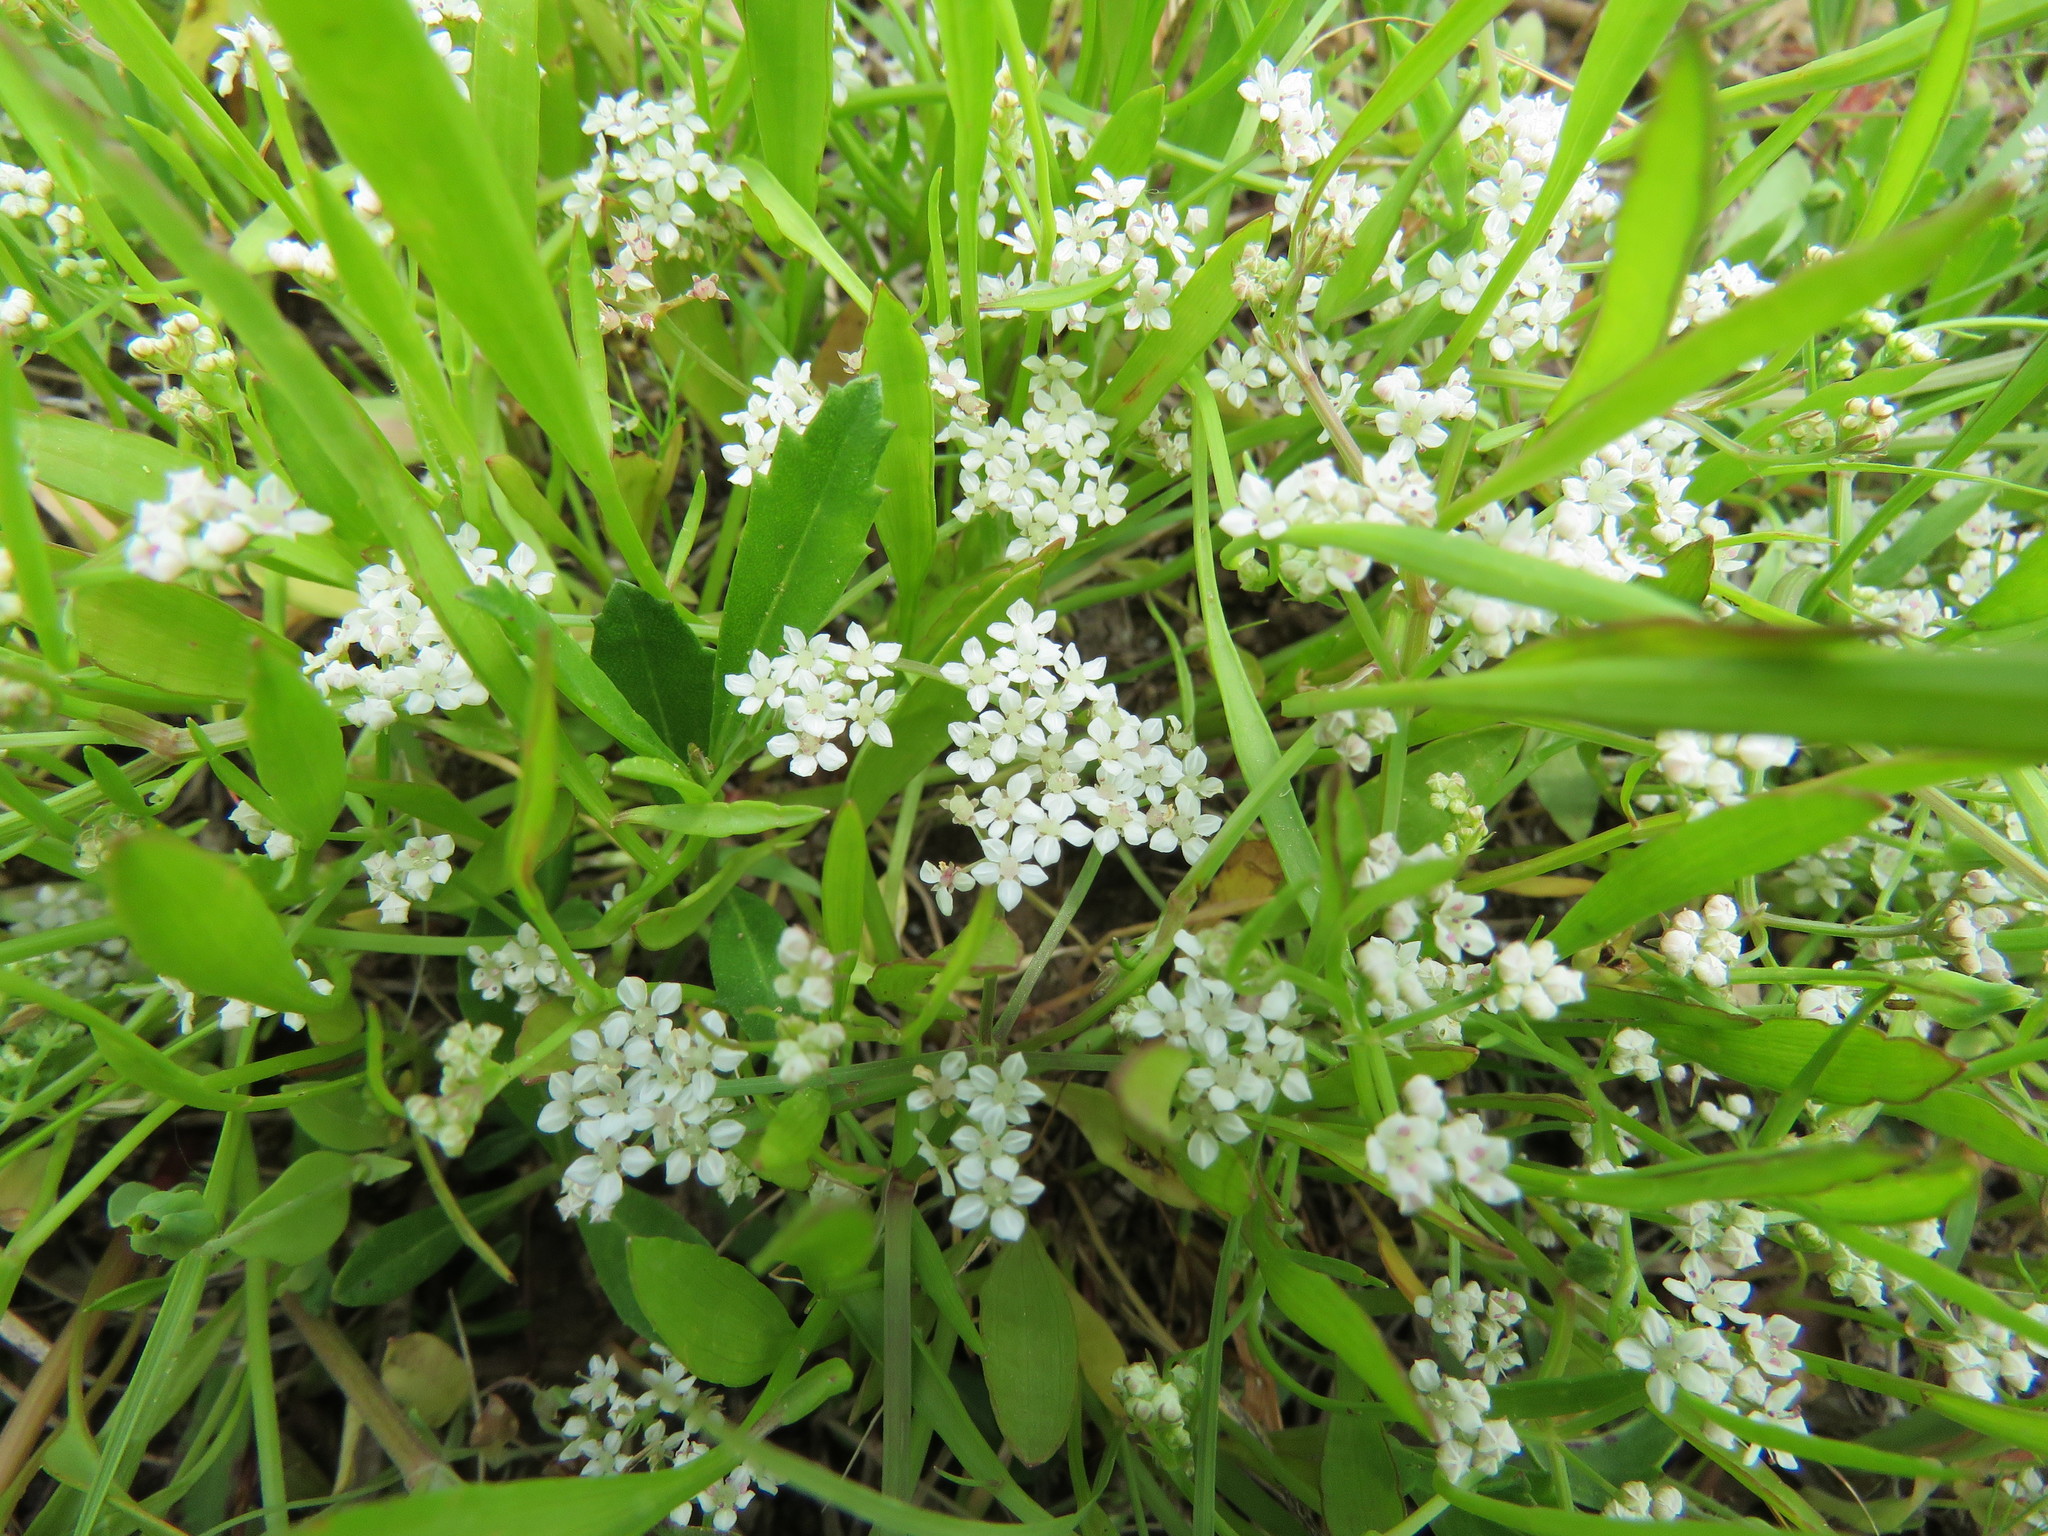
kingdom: Plantae
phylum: Tracheophyta
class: Magnoliopsida
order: Dipsacales
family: Caprifoliaceae
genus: Valerianella
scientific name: Valerianella amarella
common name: Hariy cornsalad
